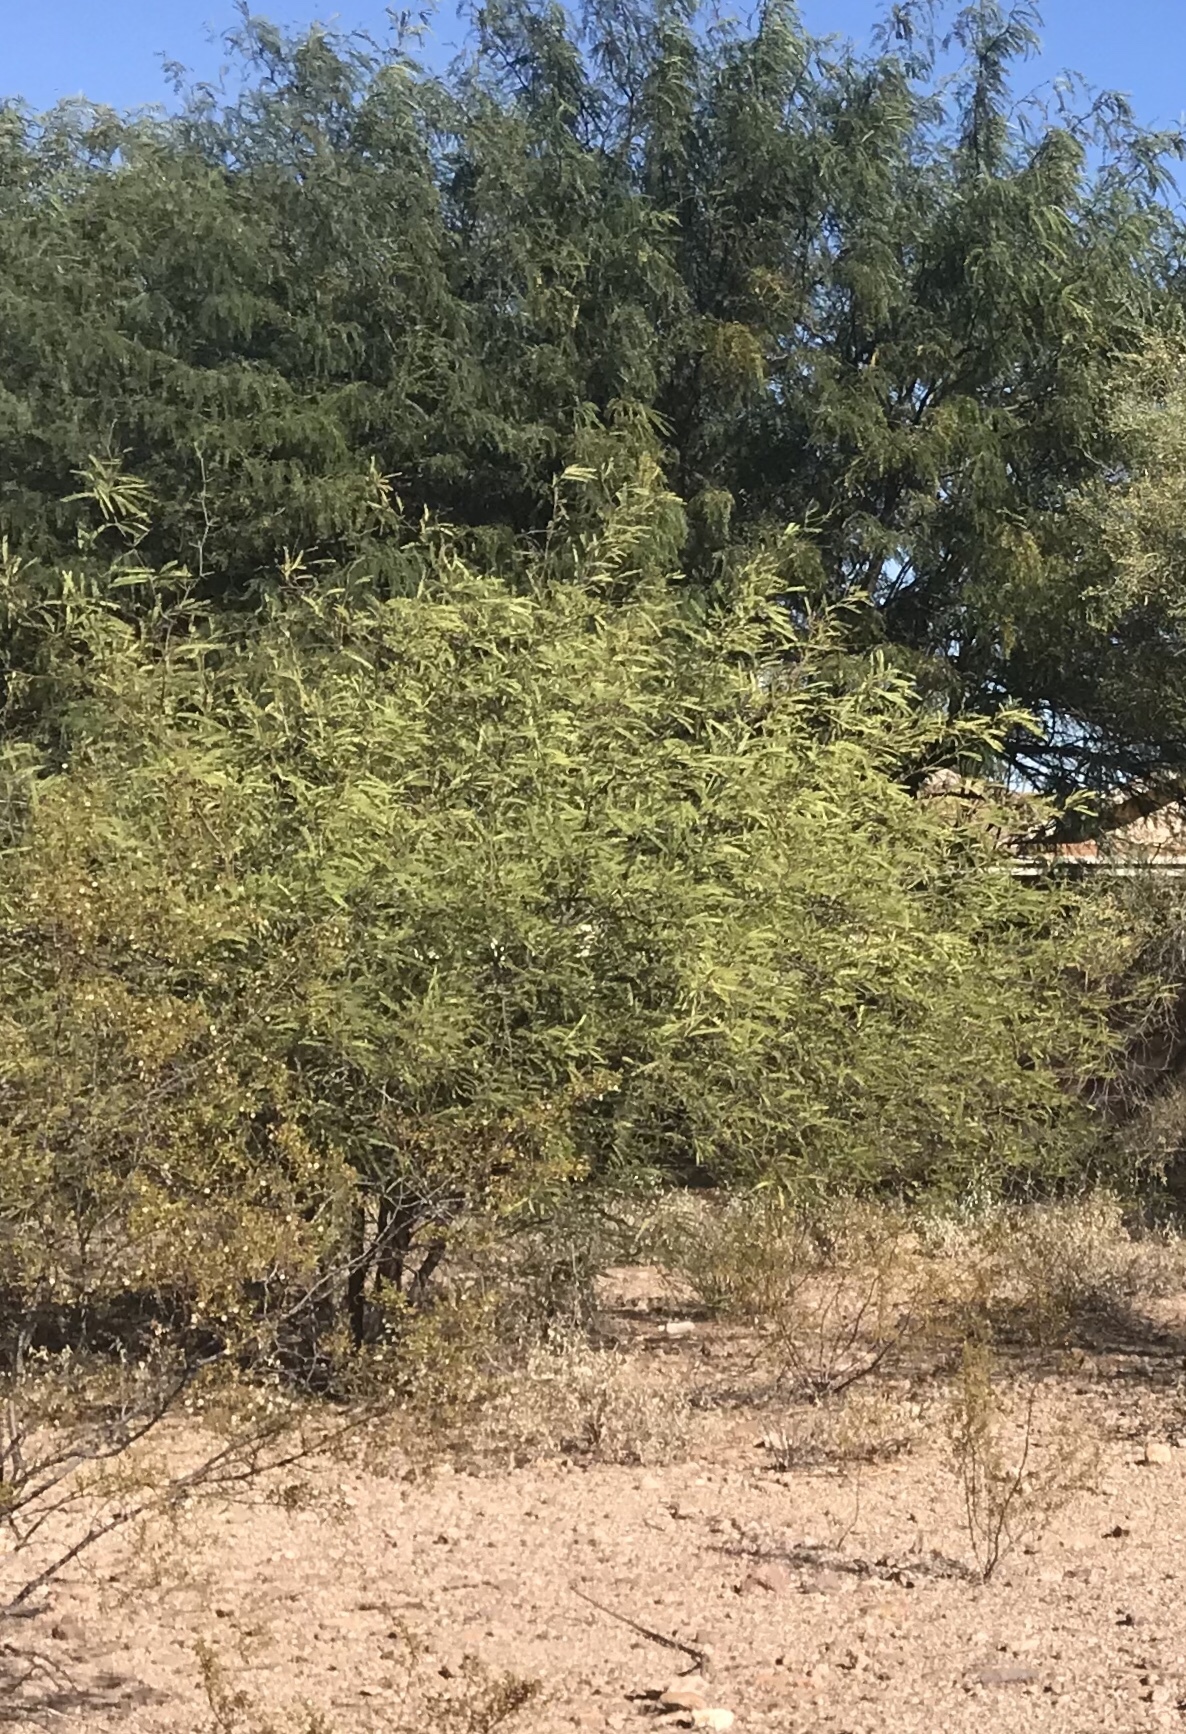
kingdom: Plantae
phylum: Tracheophyta
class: Magnoliopsida
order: Fabales
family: Fabaceae
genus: Prosopis
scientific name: Prosopis velutina
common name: Velvet mesquite
